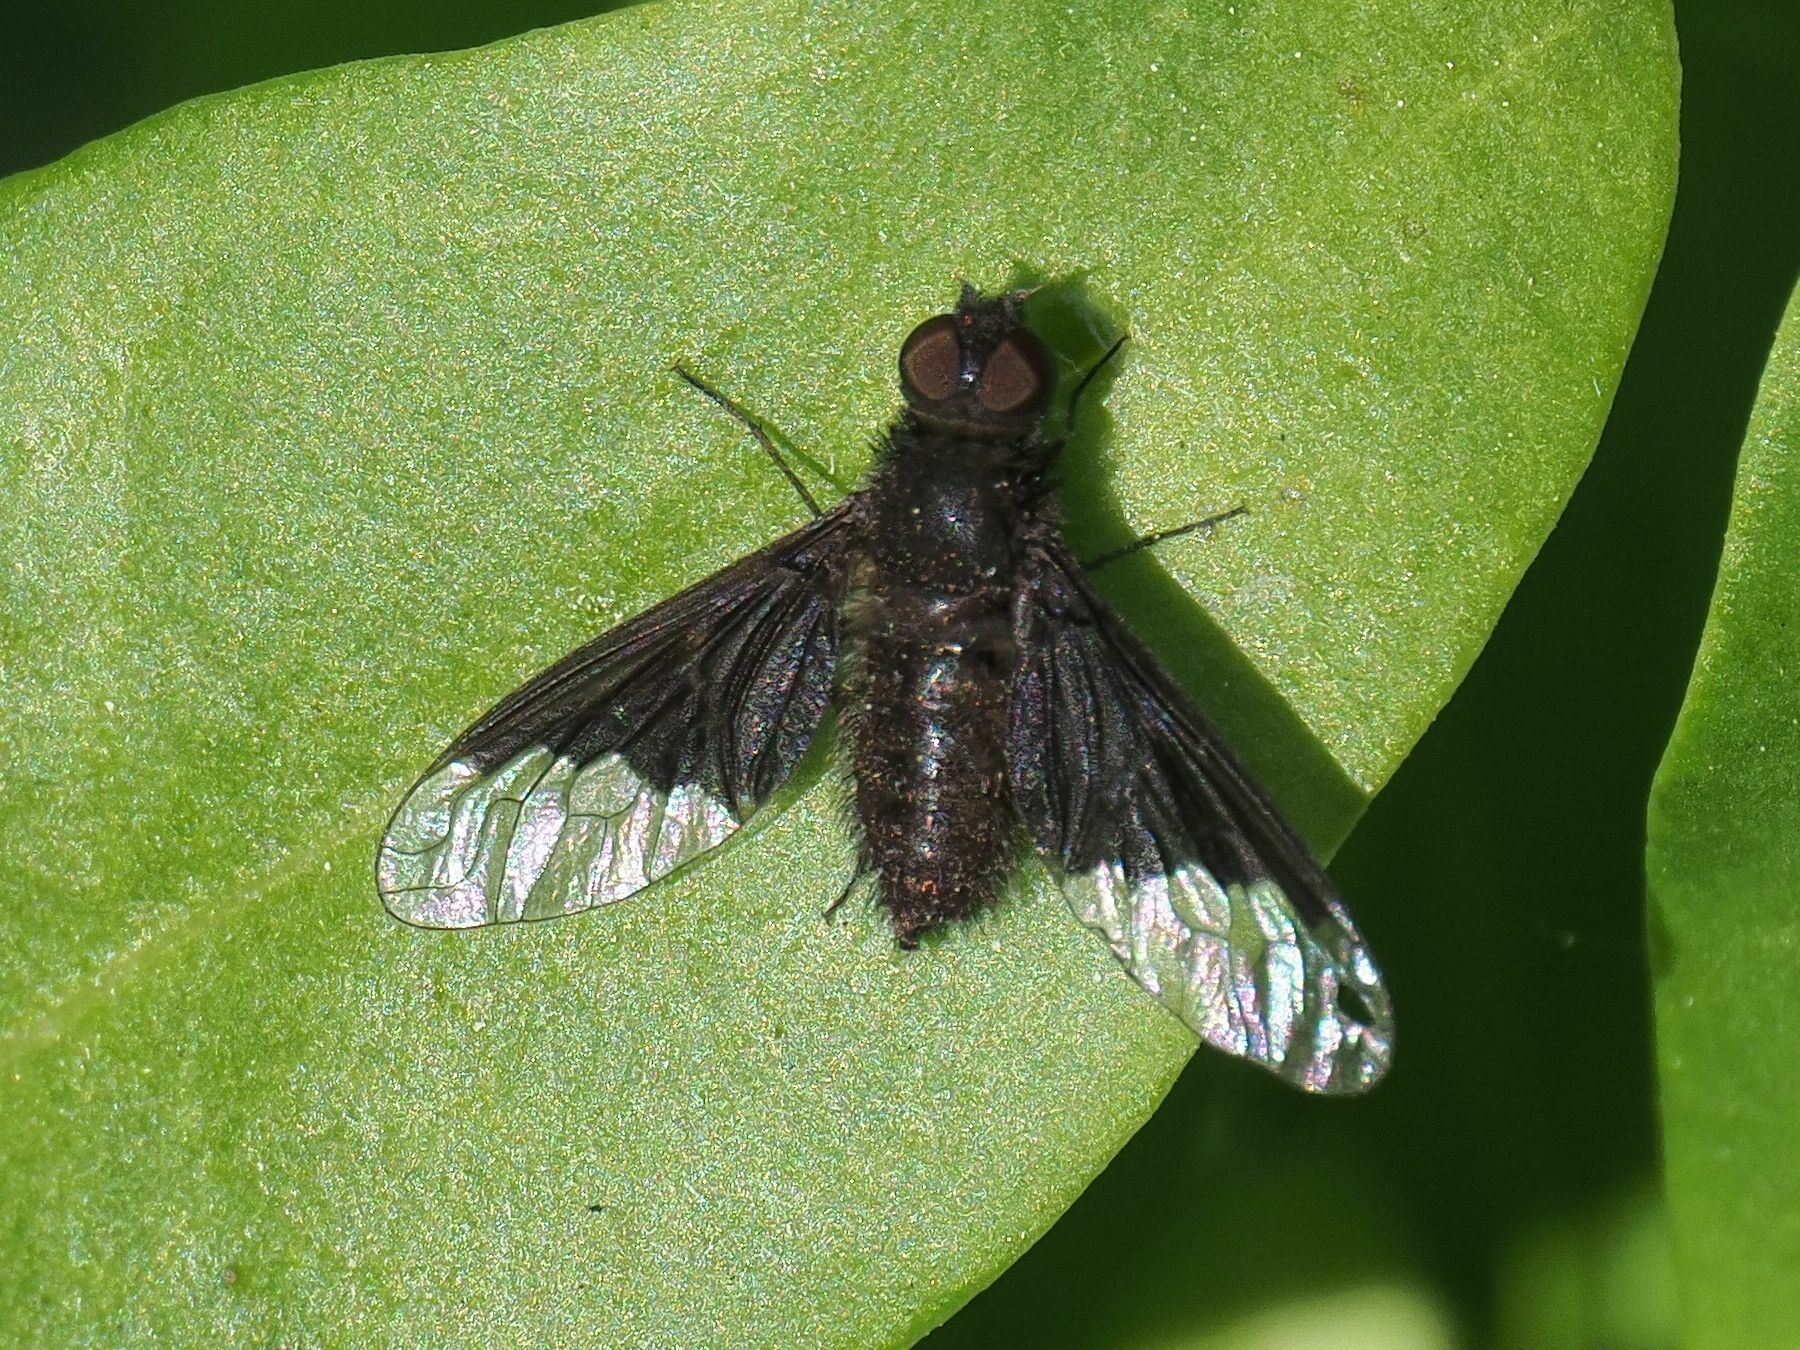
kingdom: Animalia
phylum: Arthropoda
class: Insecta
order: Diptera
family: Bombyliidae
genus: Hemipenthes
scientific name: Hemipenthes morio
